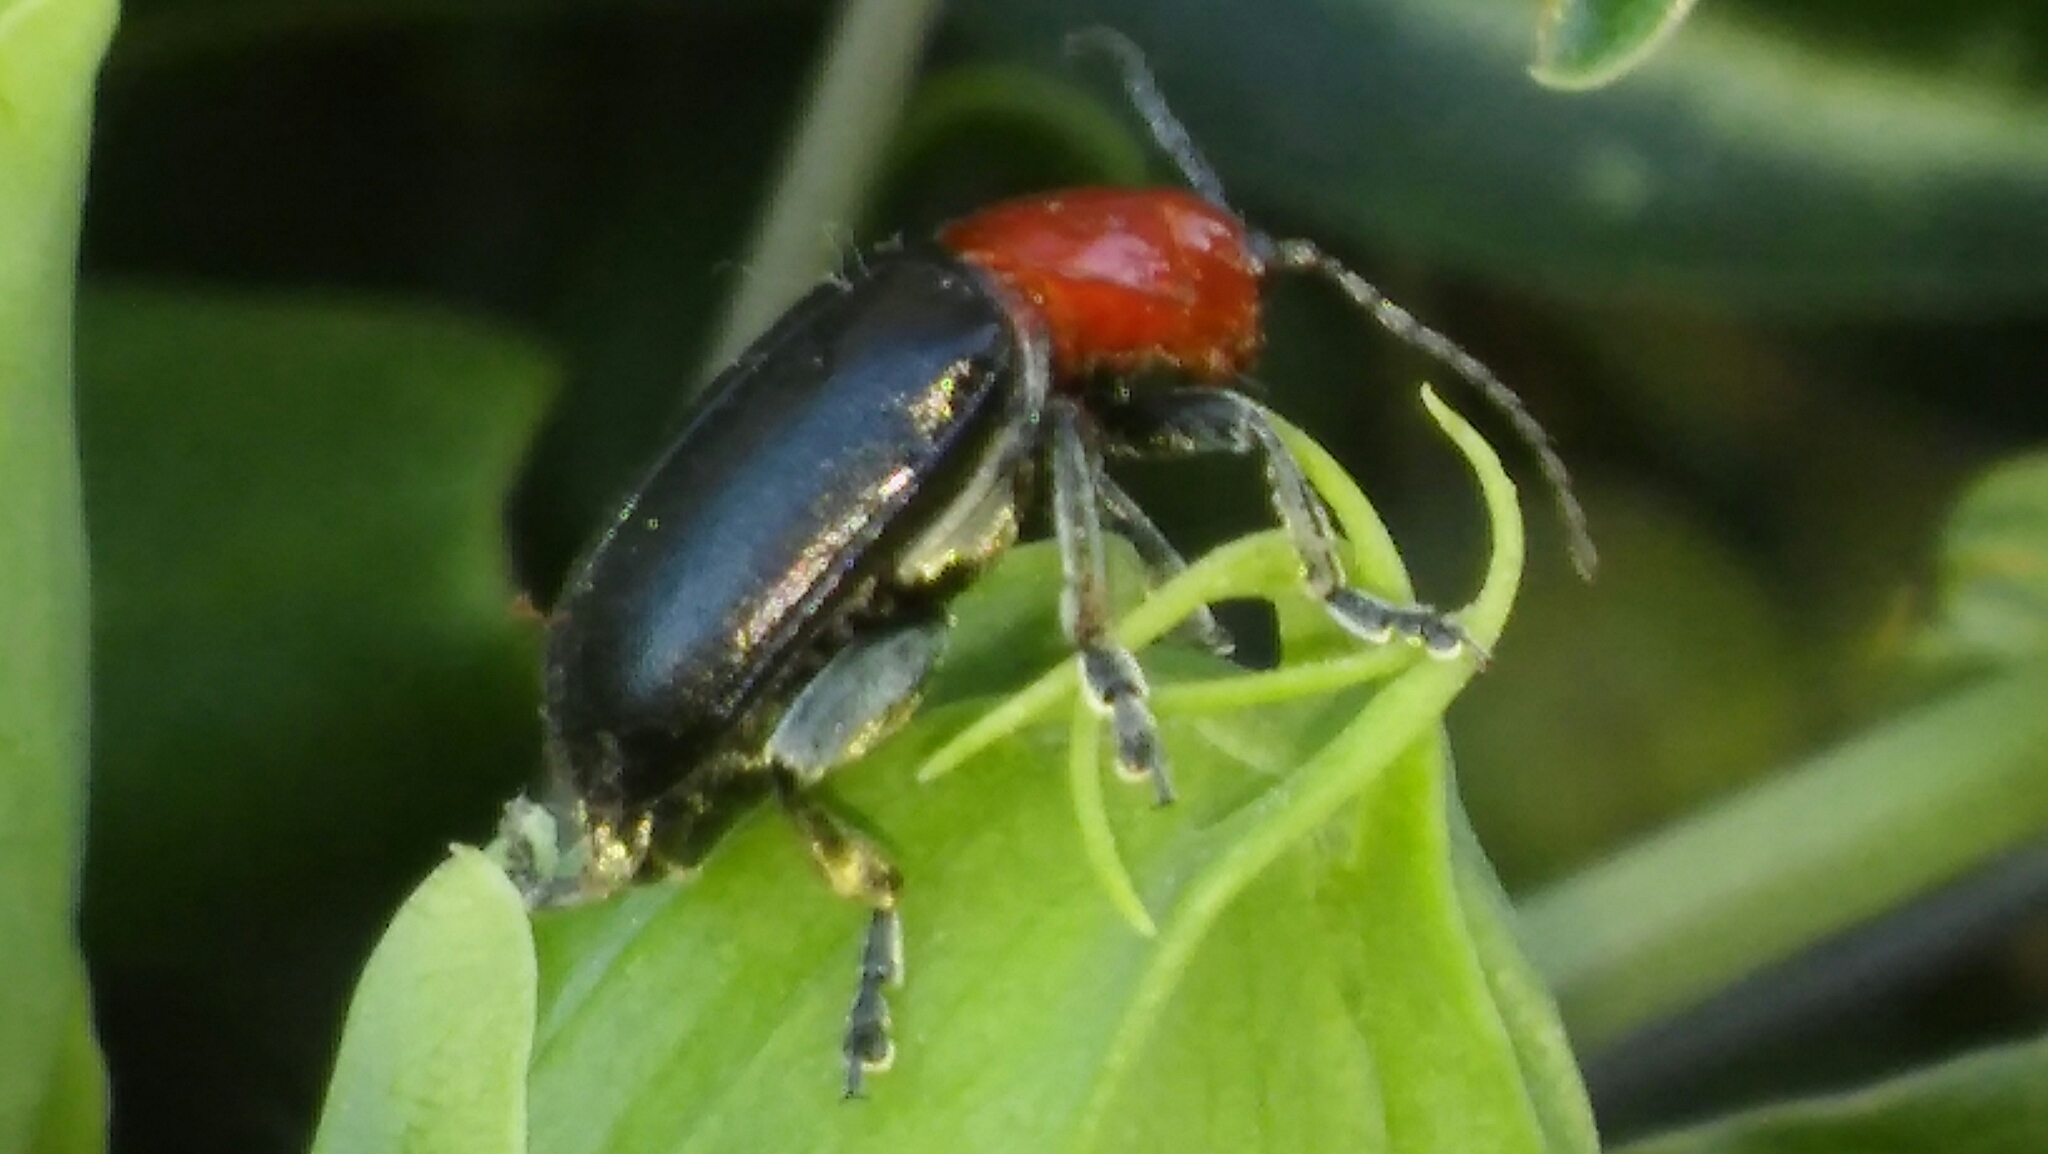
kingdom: Animalia
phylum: Arthropoda
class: Insecta
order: Coleoptera
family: Chrysomelidae
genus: Cacoscelis
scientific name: Cacoscelis
